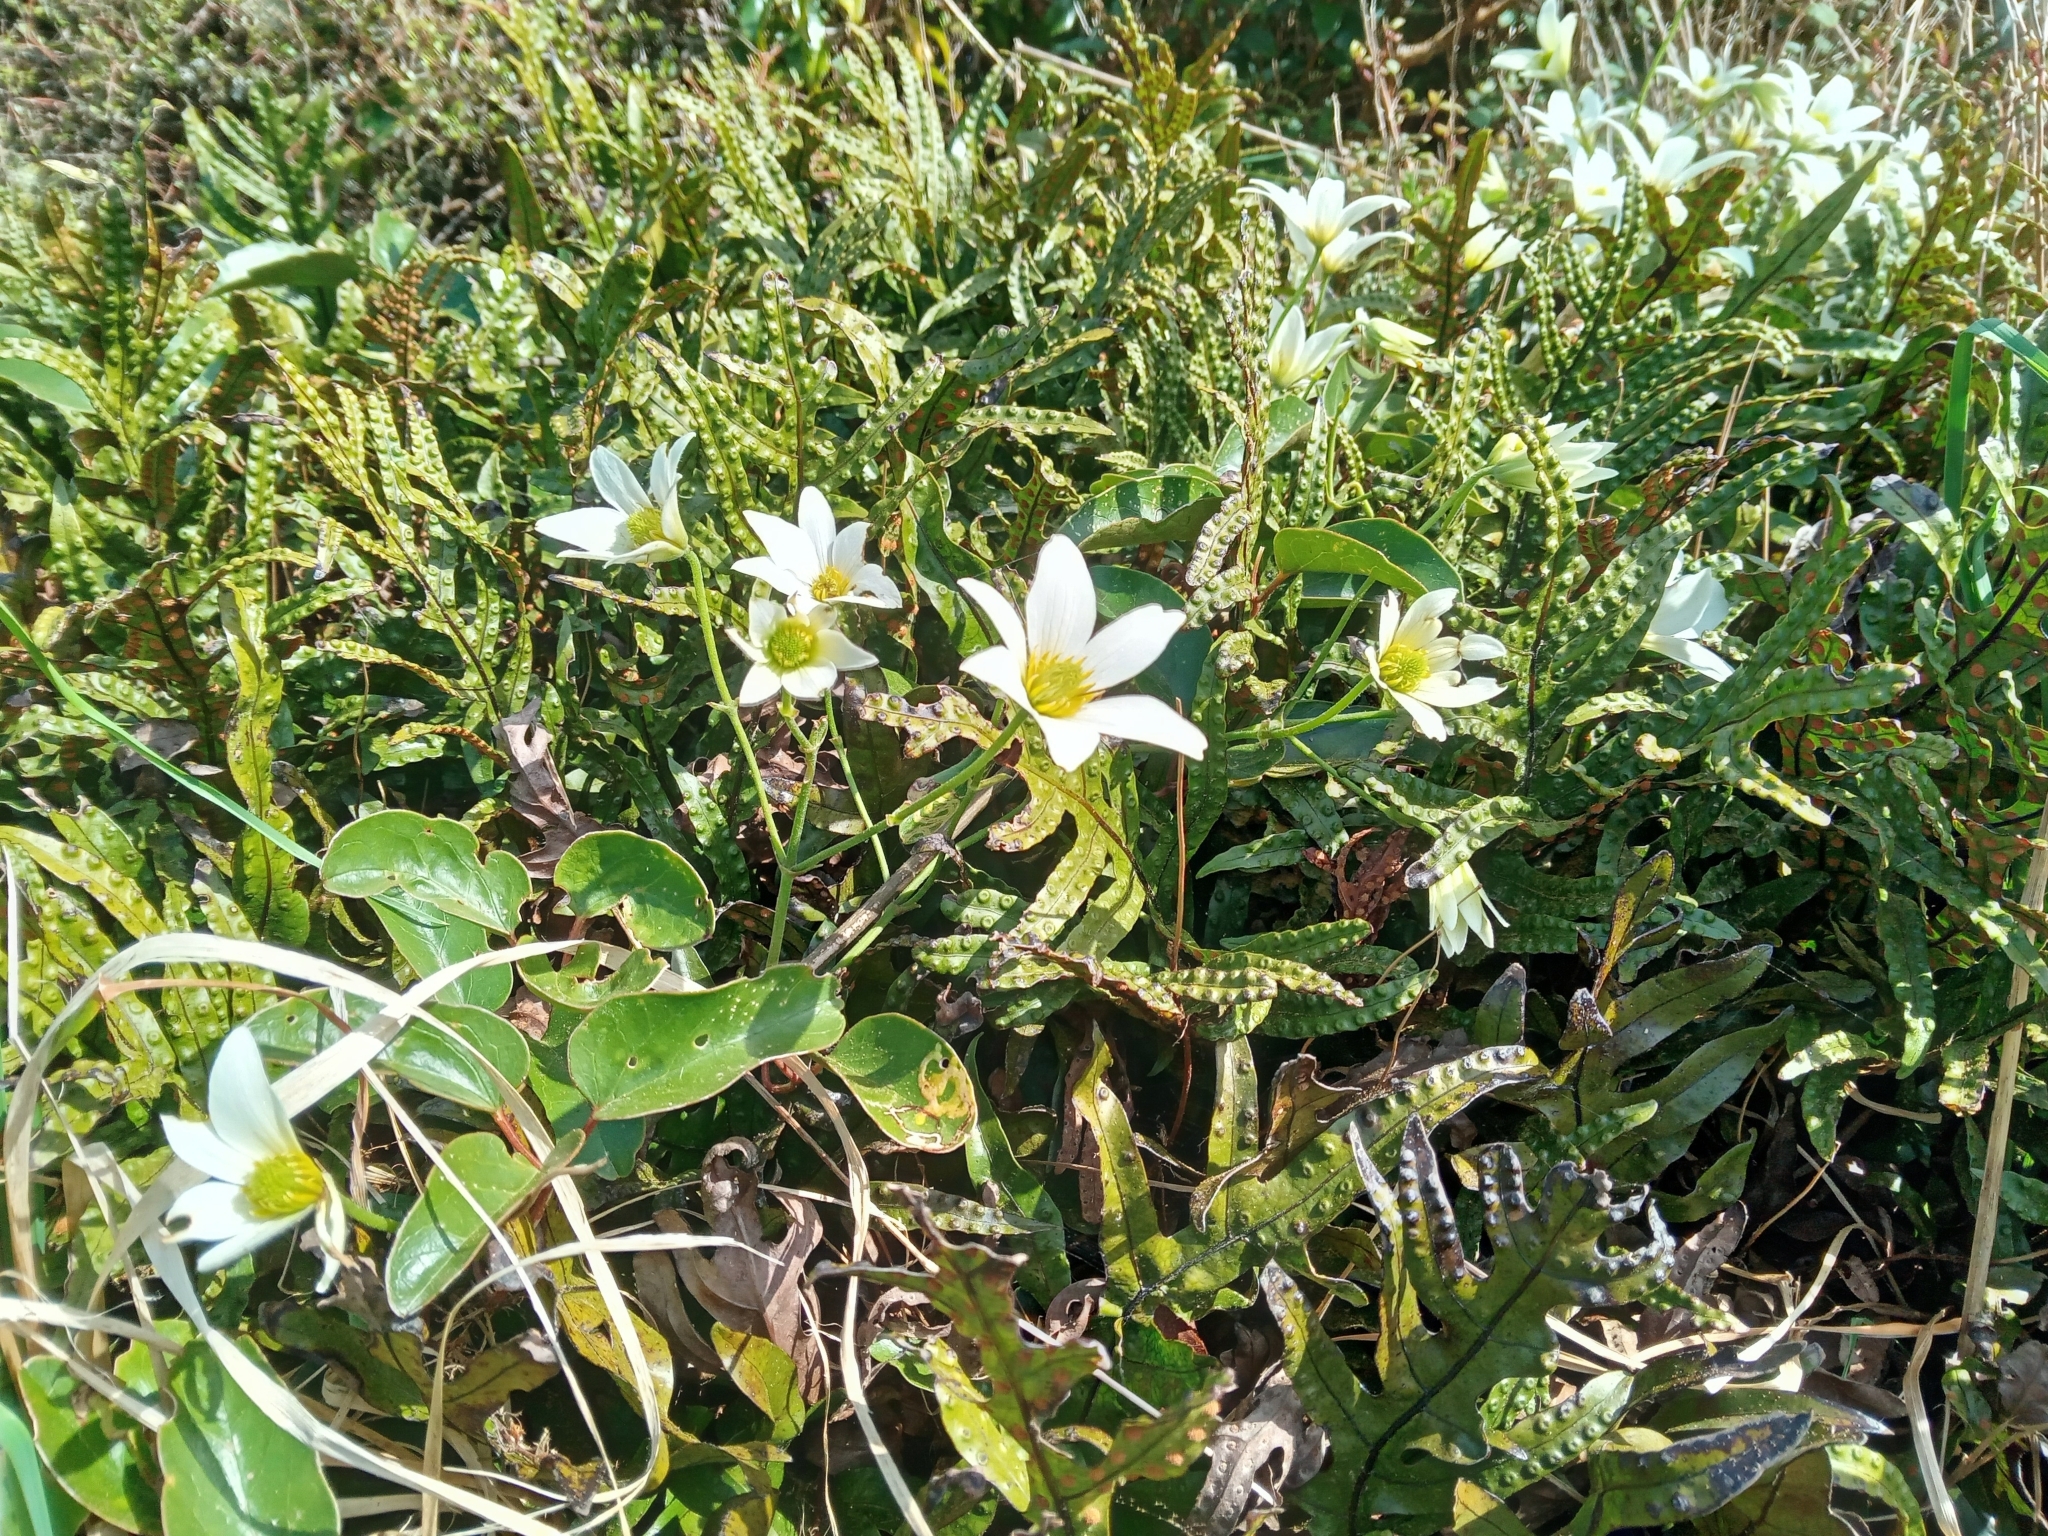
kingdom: Plantae
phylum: Tracheophyta
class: Magnoliopsida
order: Ranunculales
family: Ranunculaceae
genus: Clematis
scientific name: Clematis paniculata
